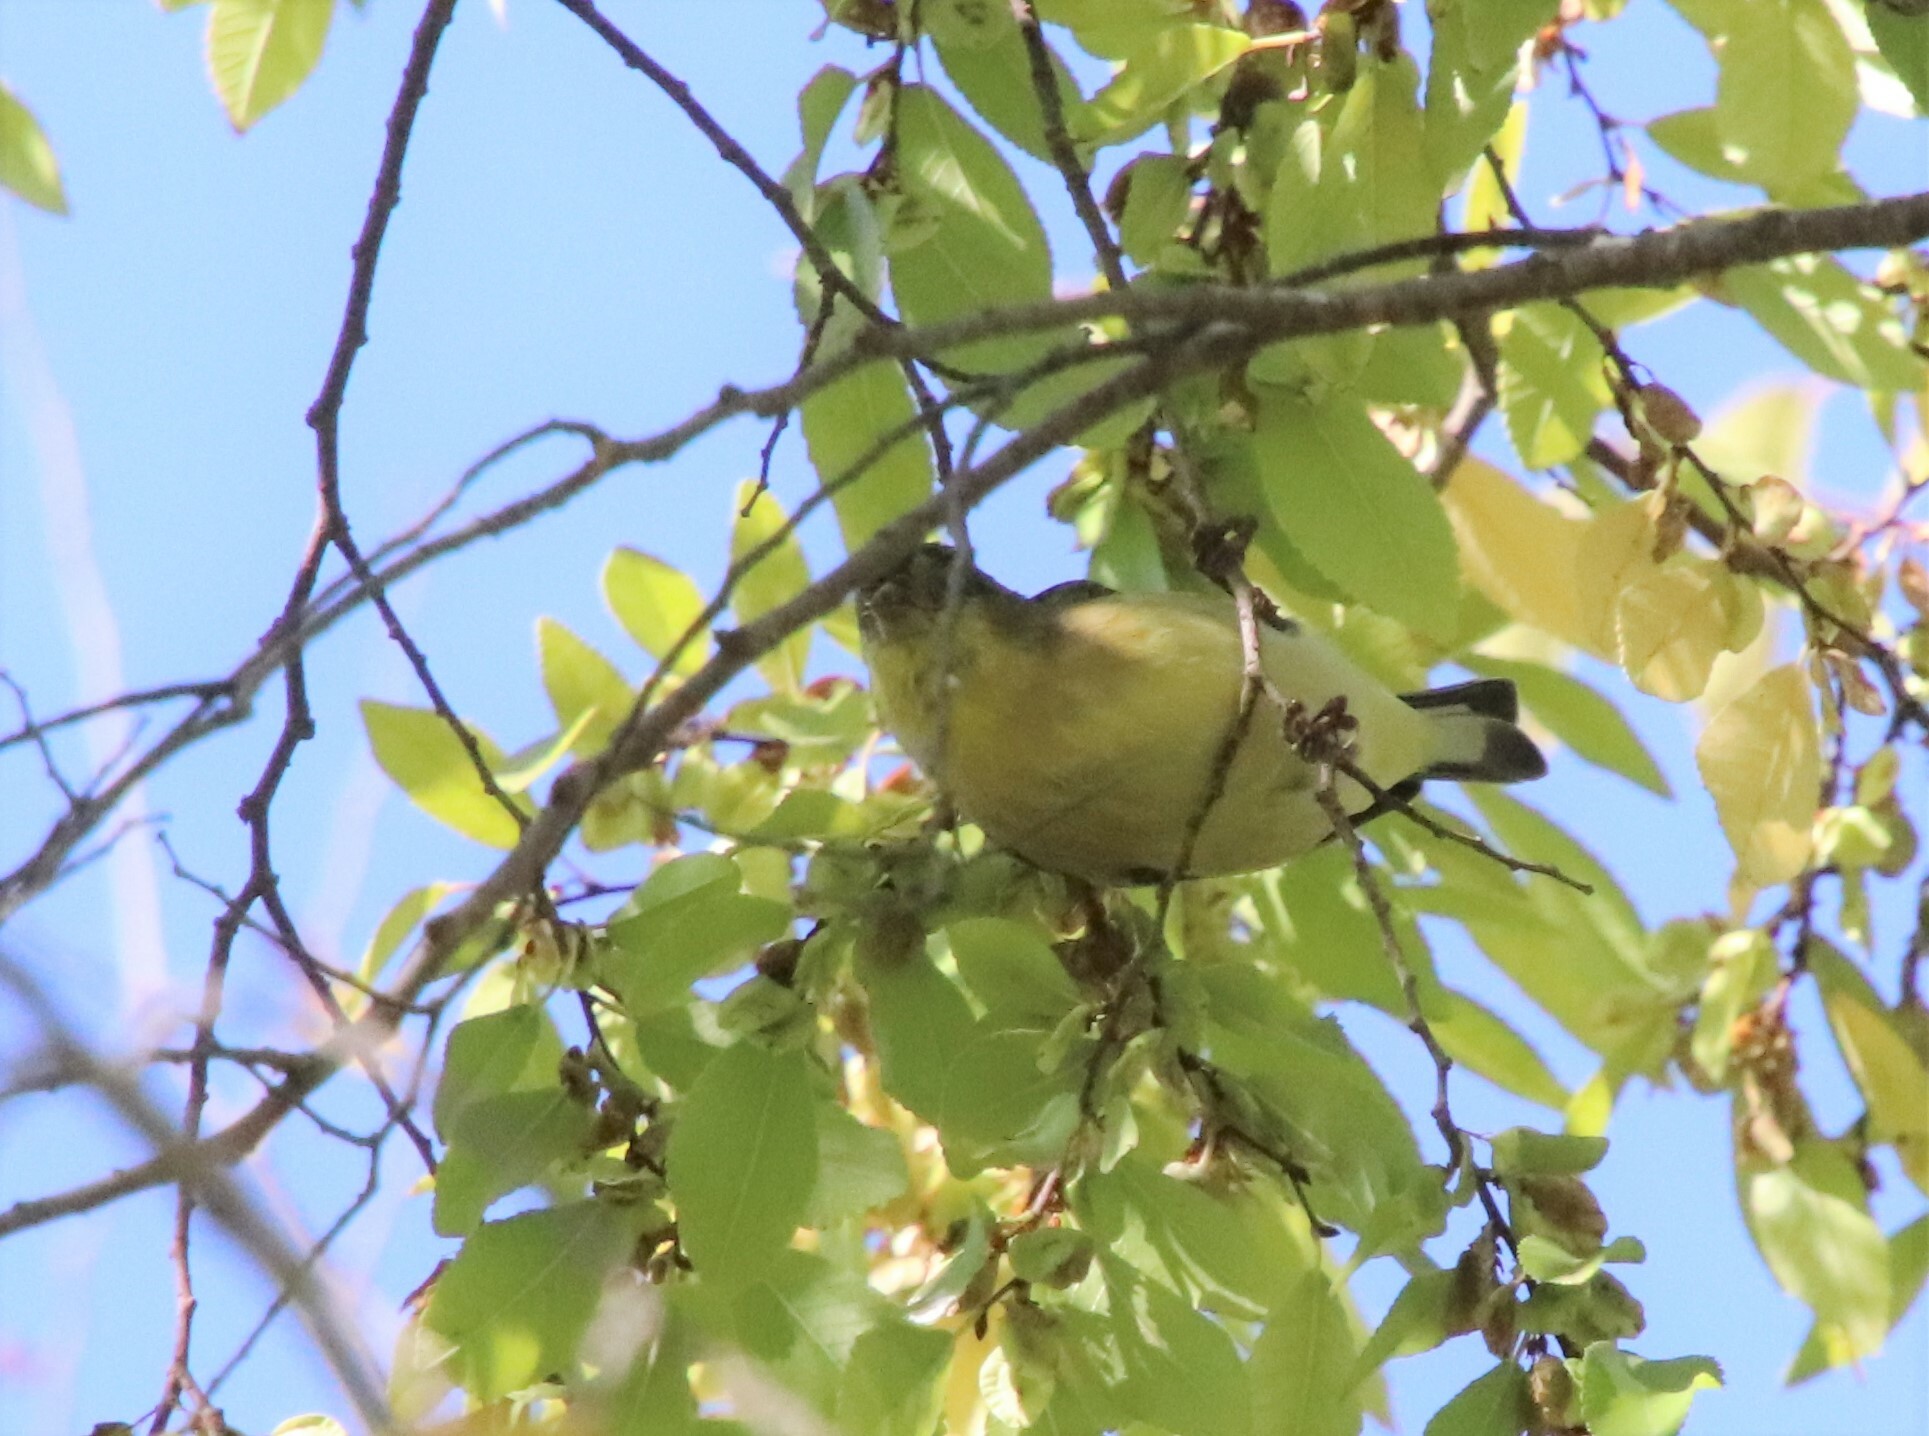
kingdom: Animalia
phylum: Chordata
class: Aves
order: Passeriformes
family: Fringillidae
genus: Spinus
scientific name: Spinus psaltria
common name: Lesser goldfinch
